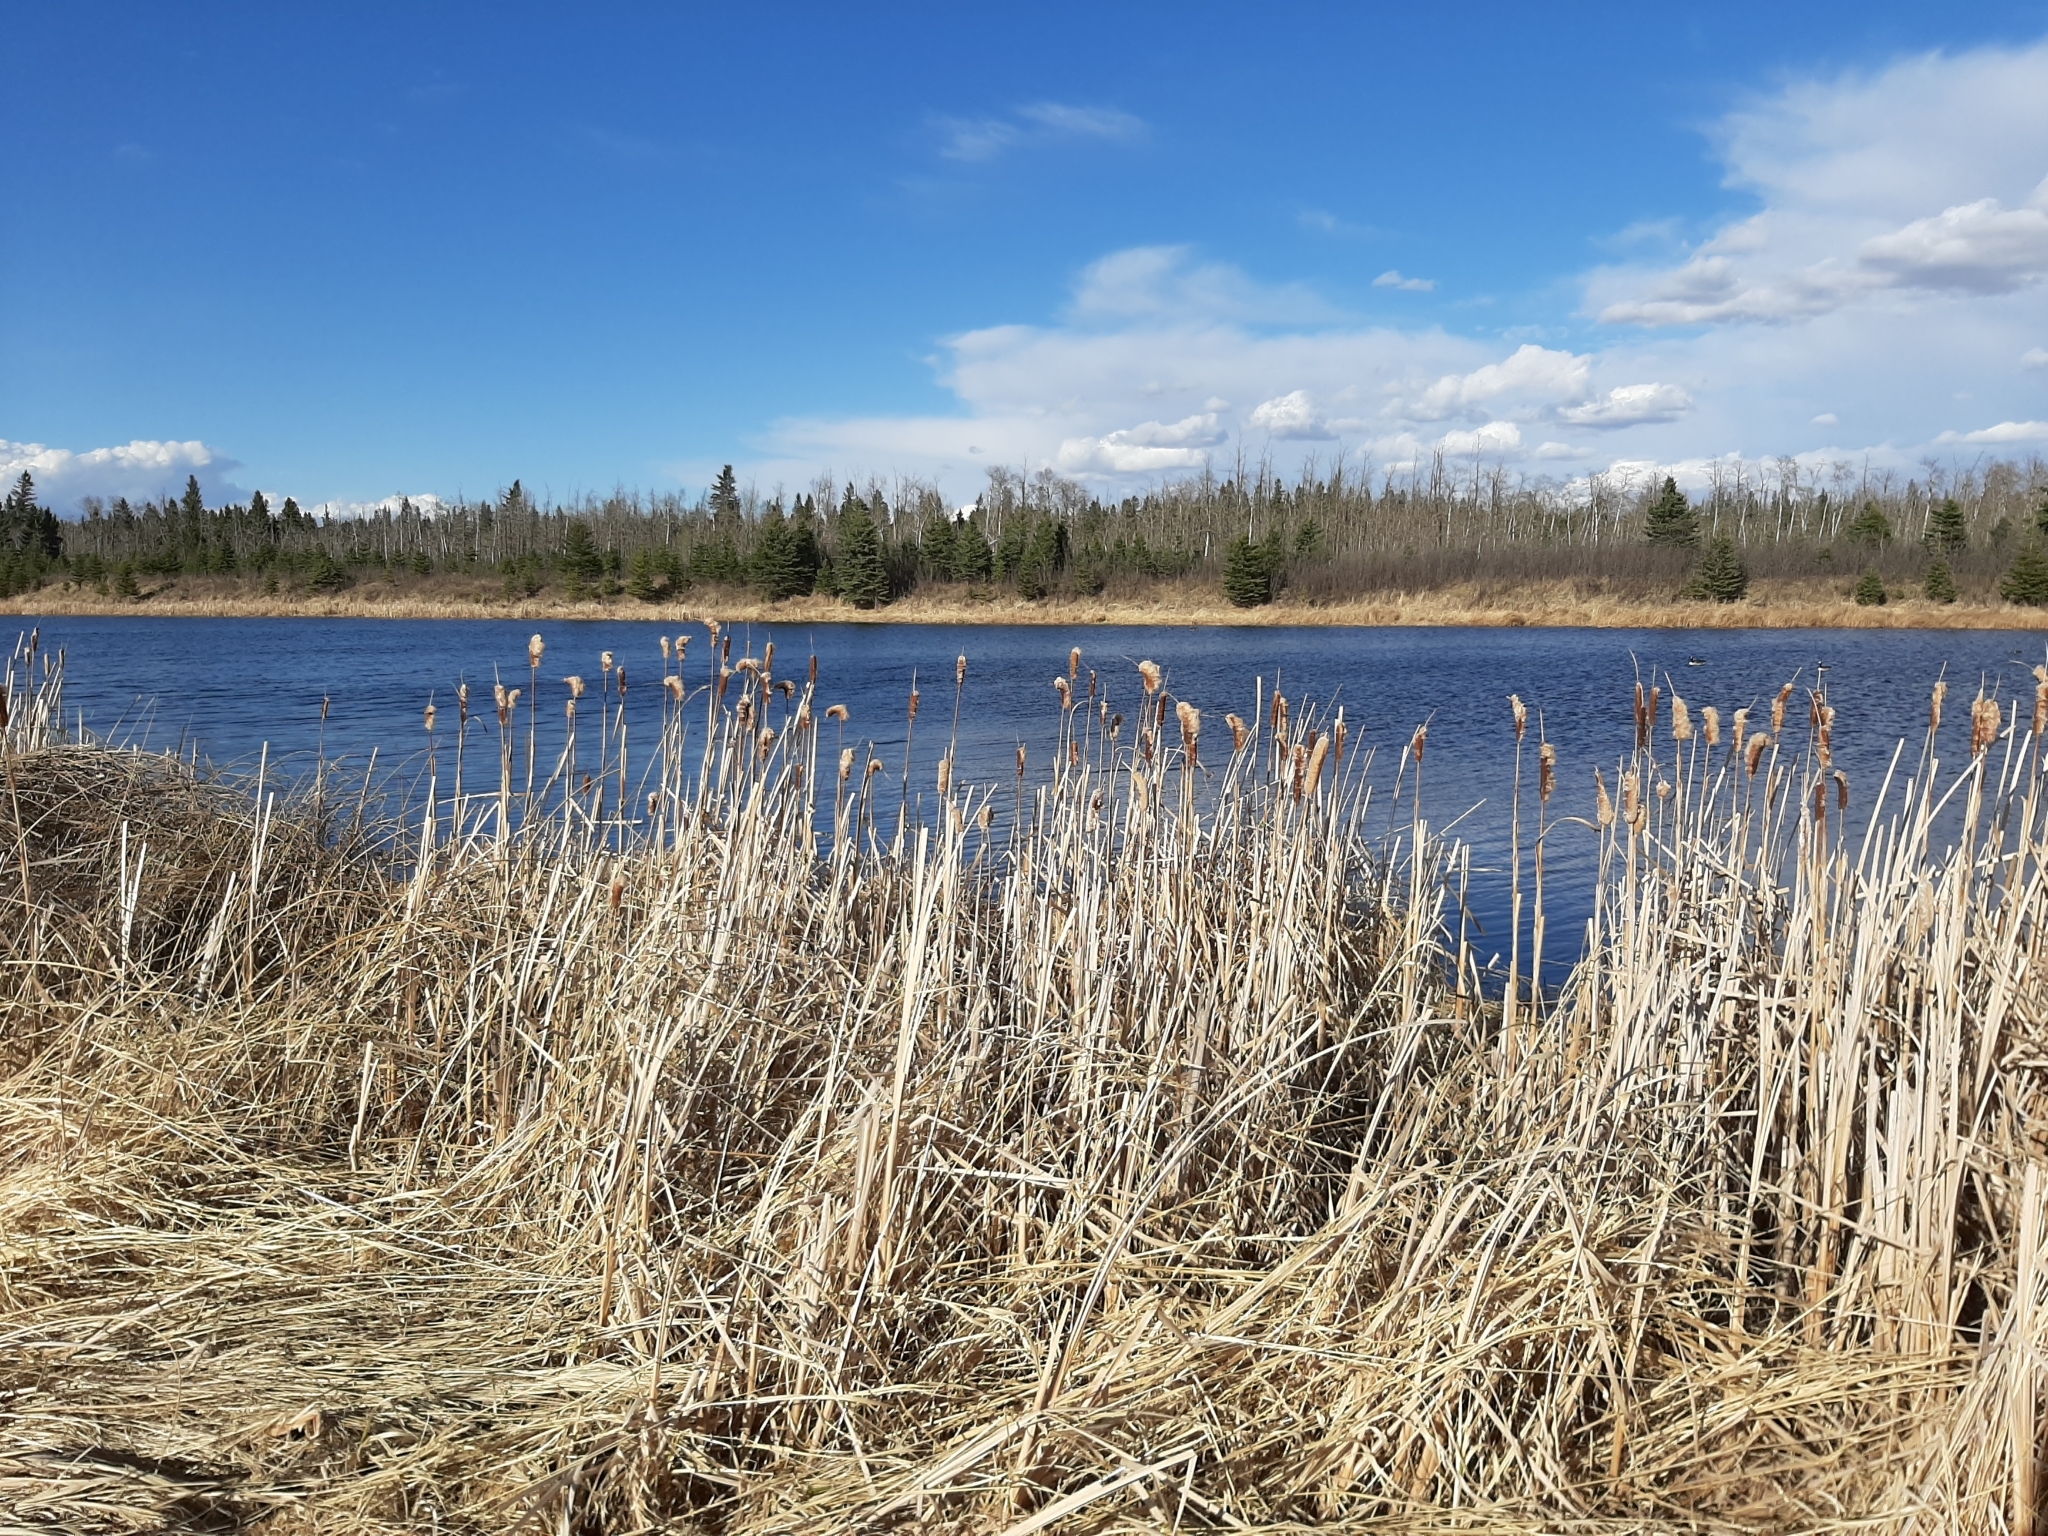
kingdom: Plantae
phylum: Tracheophyta
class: Liliopsida
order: Poales
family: Typhaceae
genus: Typha
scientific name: Typha latifolia
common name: Broadleaf cattail
